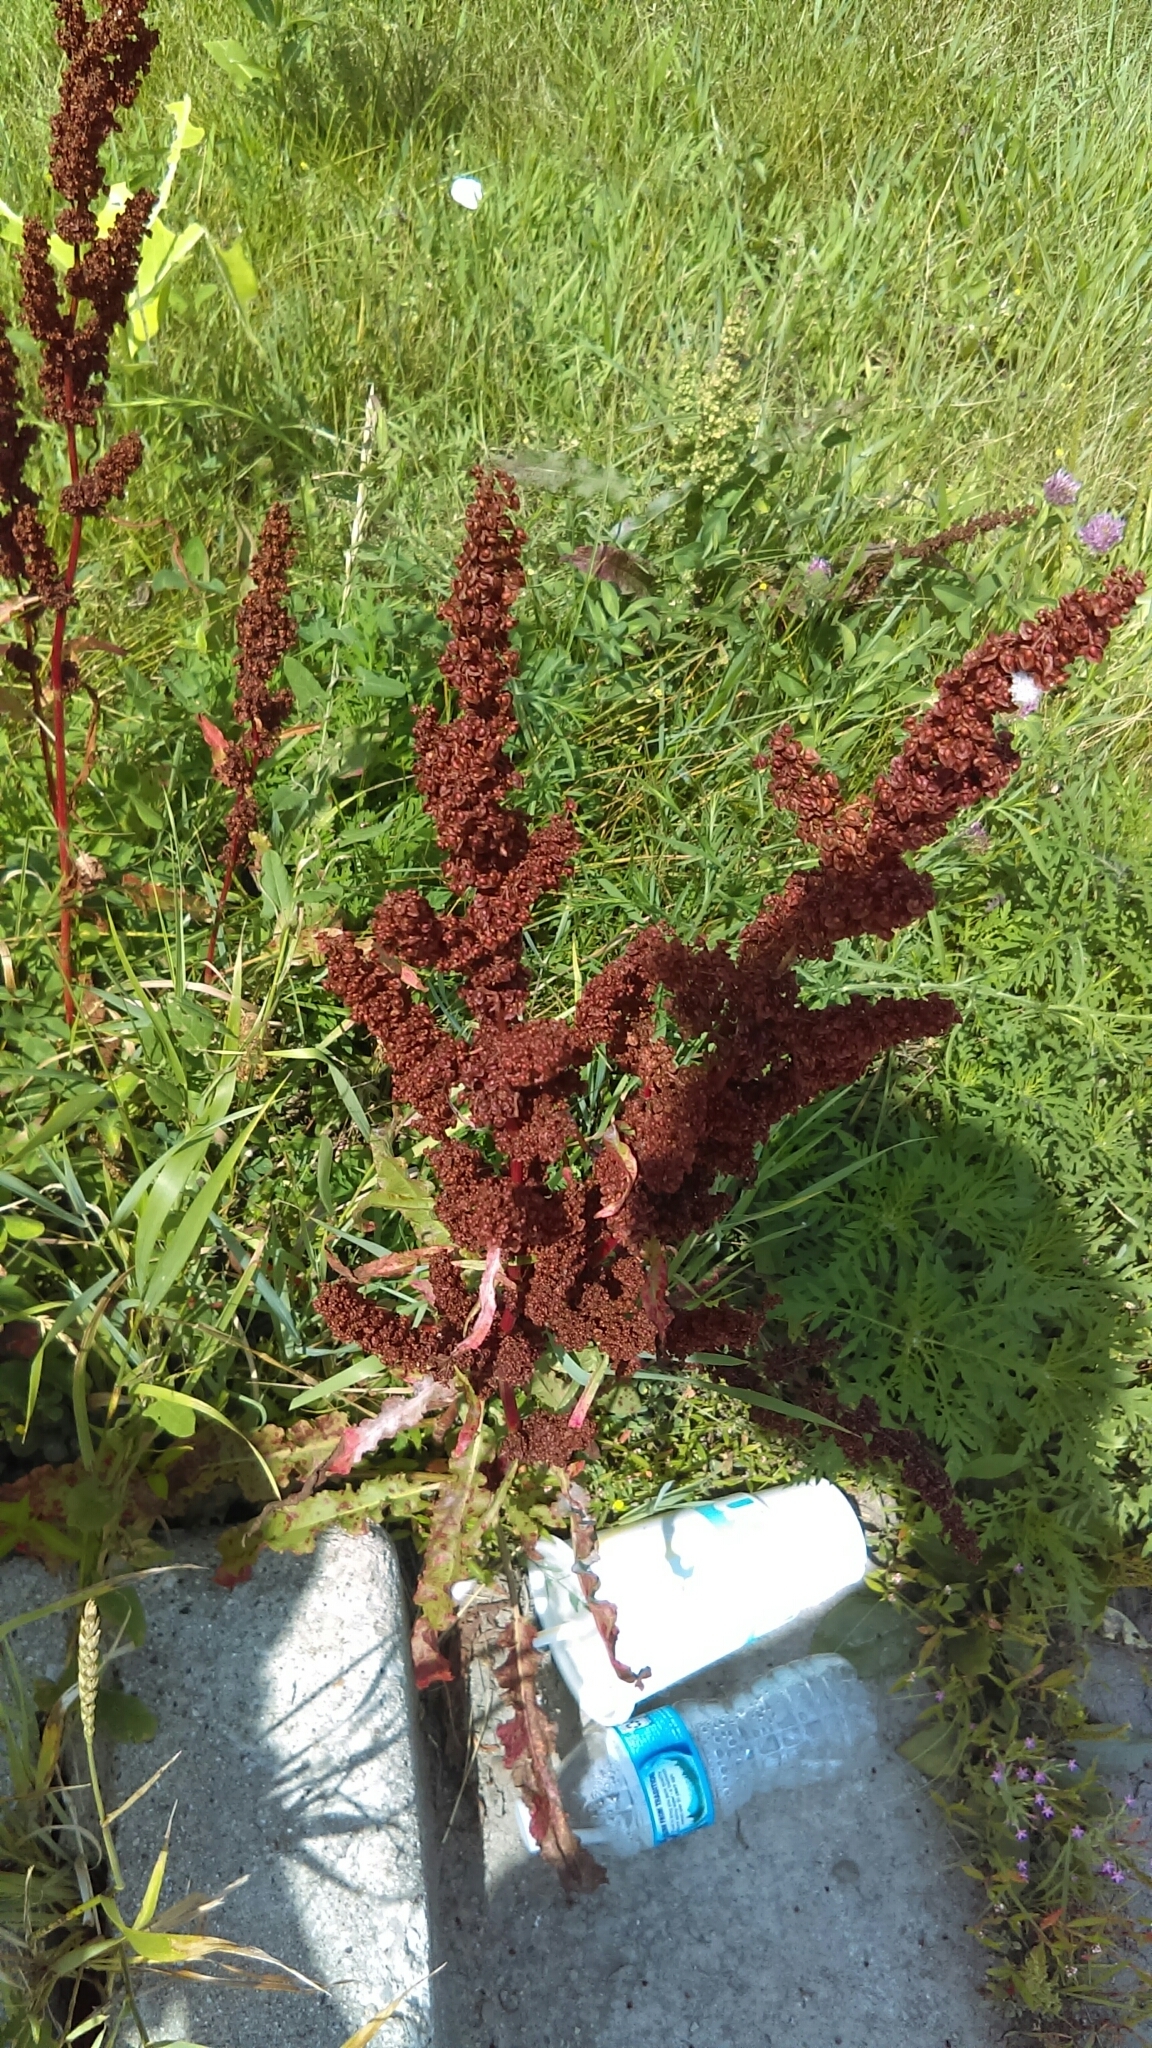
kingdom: Plantae
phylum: Tracheophyta
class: Magnoliopsida
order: Caryophyllales
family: Polygonaceae
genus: Rumex
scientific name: Rumex crispus
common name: Curled dock
